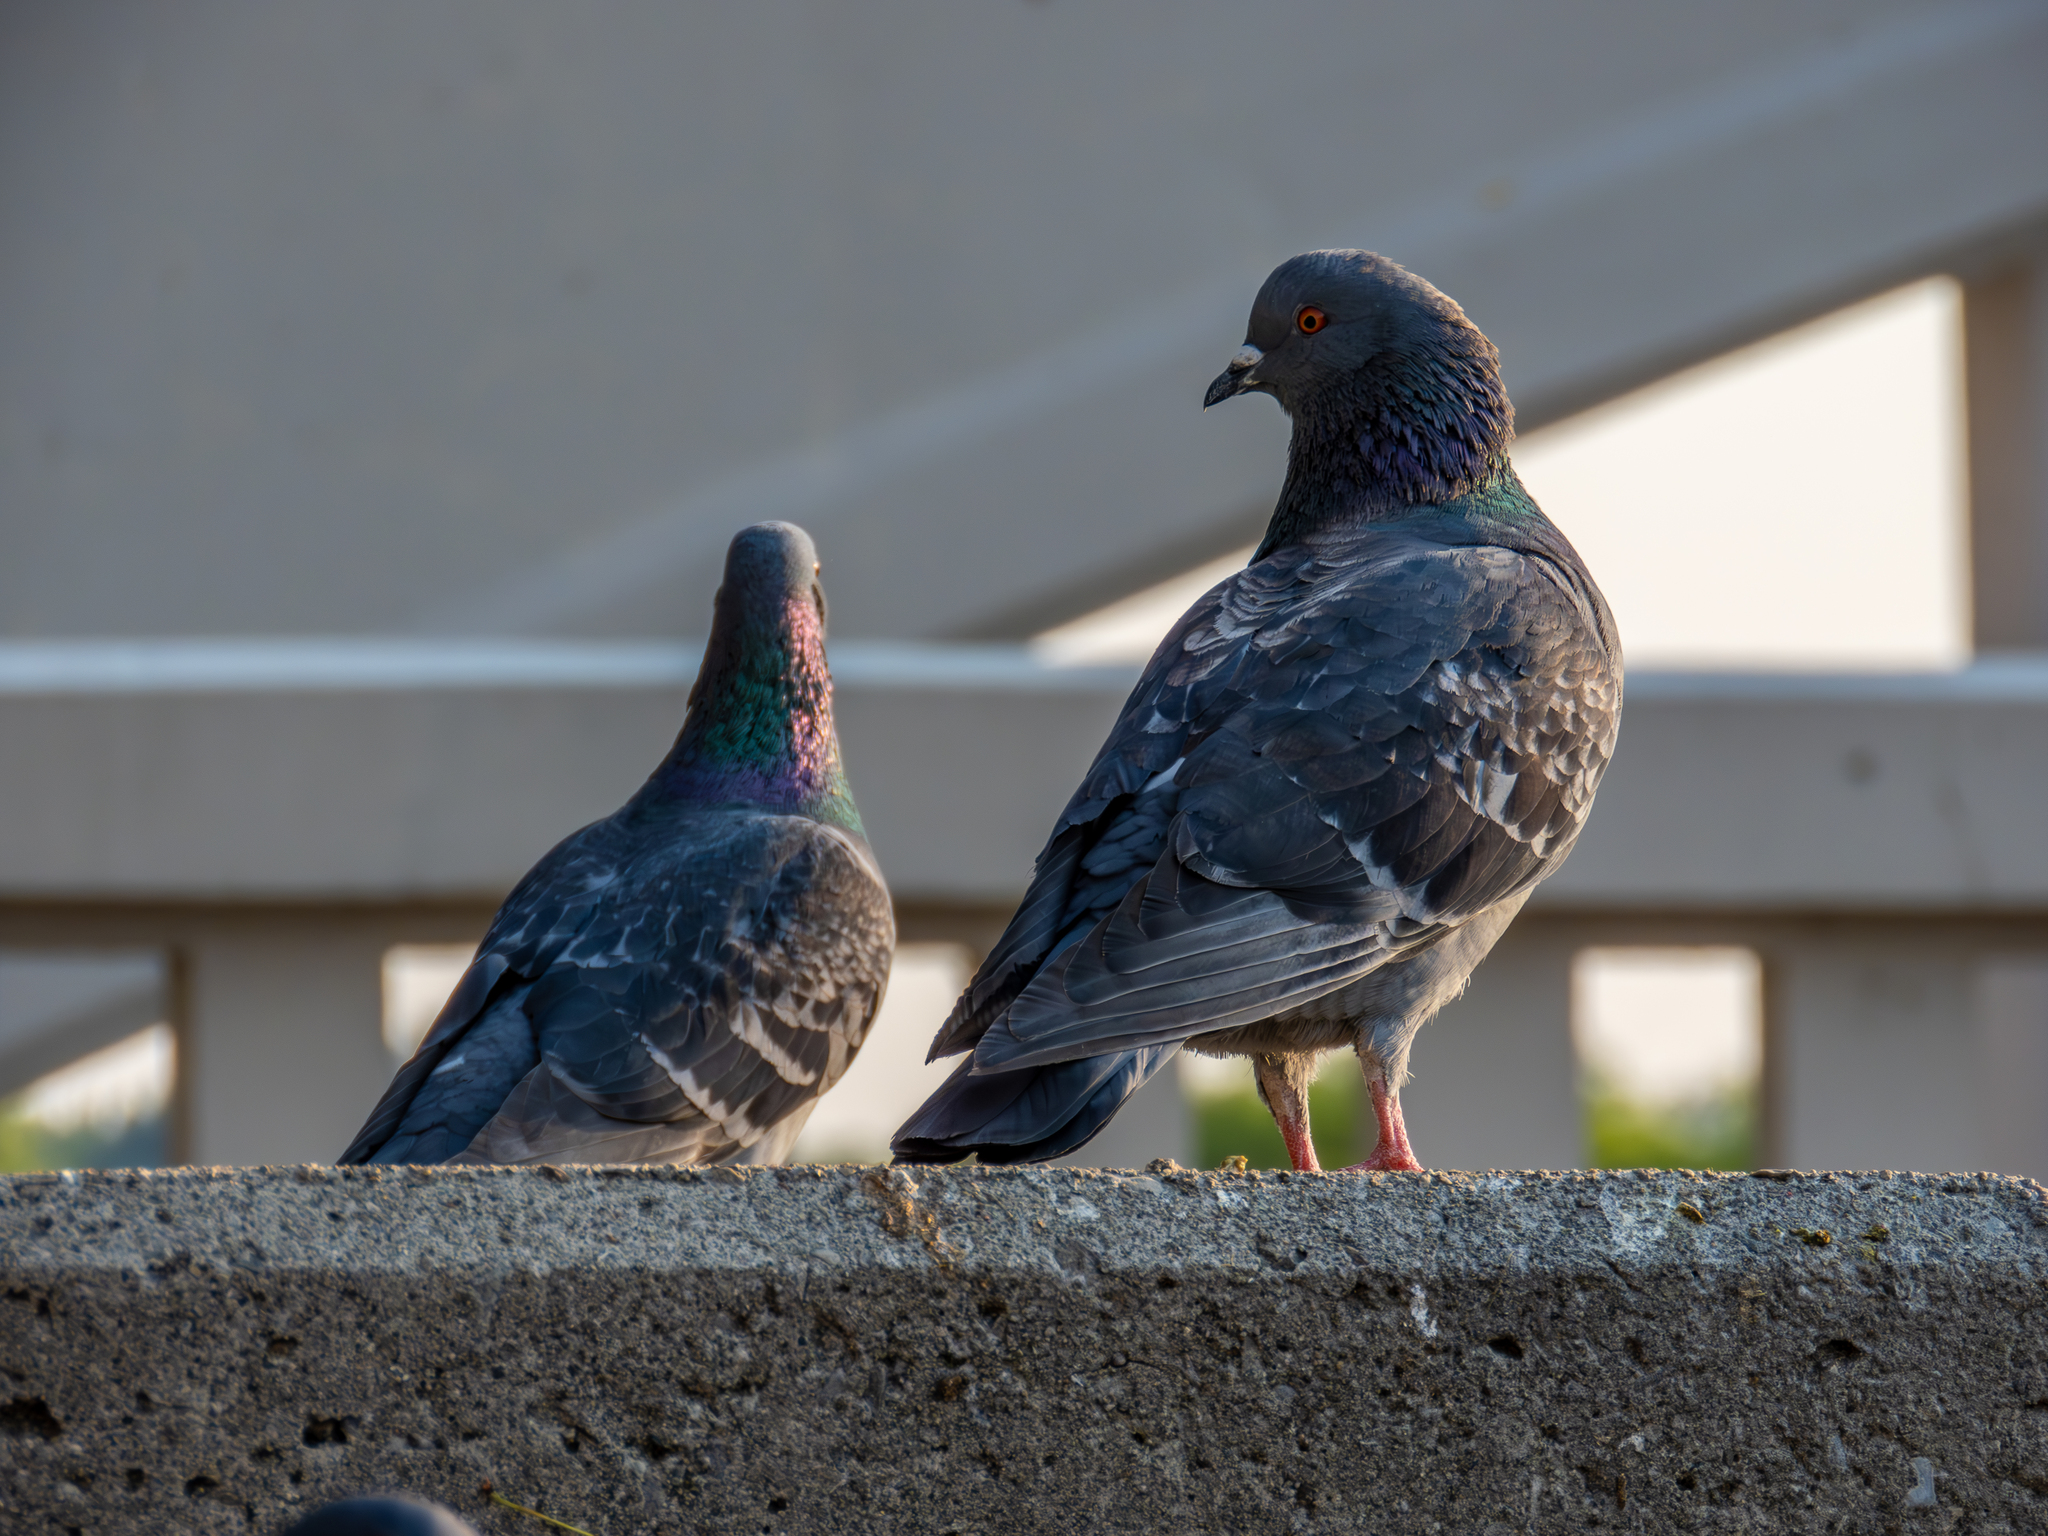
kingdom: Animalia
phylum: Chordata
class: Aves
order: Columbiformes
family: Columbidae
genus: Columba
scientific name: Columba livia
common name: Rock pigeon
